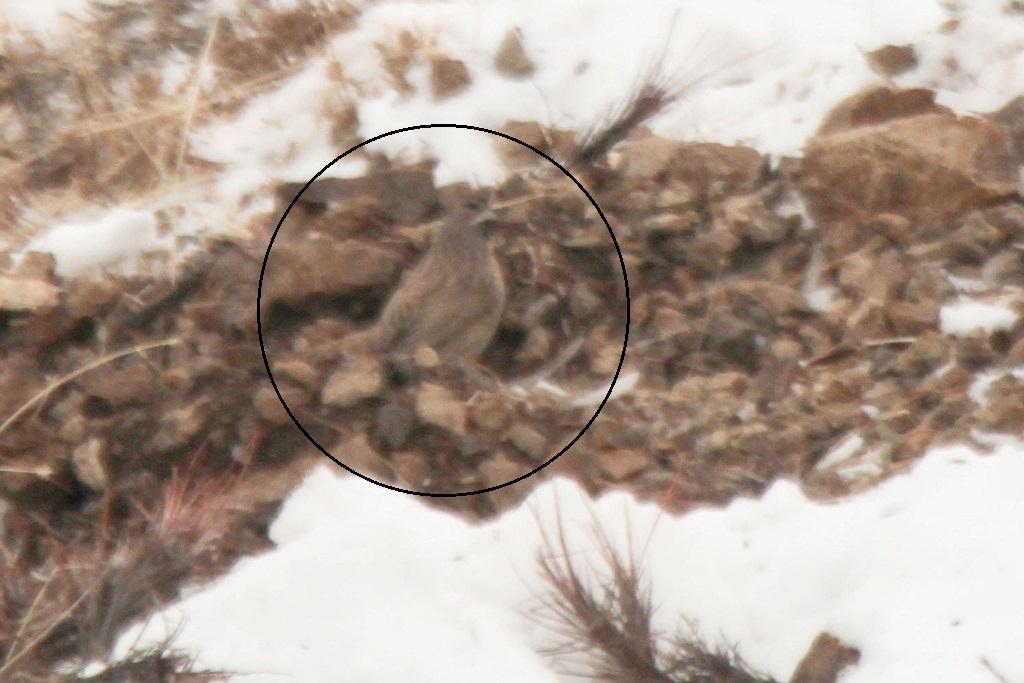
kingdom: Animalia
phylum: Chordata
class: Aves
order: Passeriformes
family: Prunellidae
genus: Prunella
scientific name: Prunella fulvescens
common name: Brown accentor
